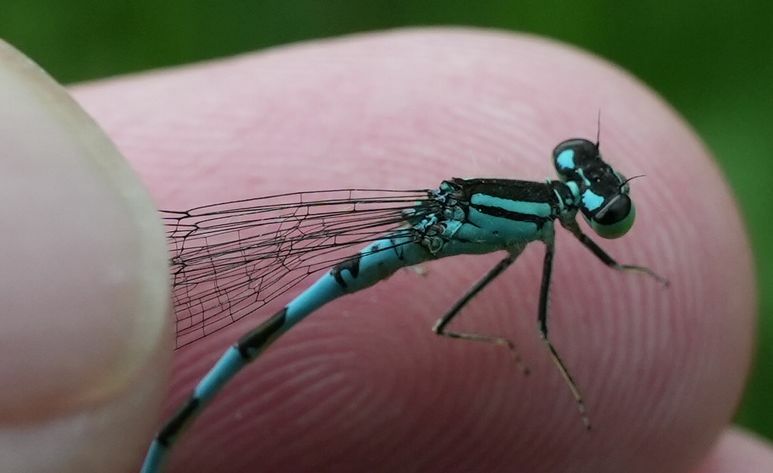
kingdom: Animalia
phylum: Arthropoda
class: Insecta
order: Odonata
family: Coenagrionidae
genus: Coenagrion
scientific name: Coenagrion resolutum
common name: Taiga bluet
